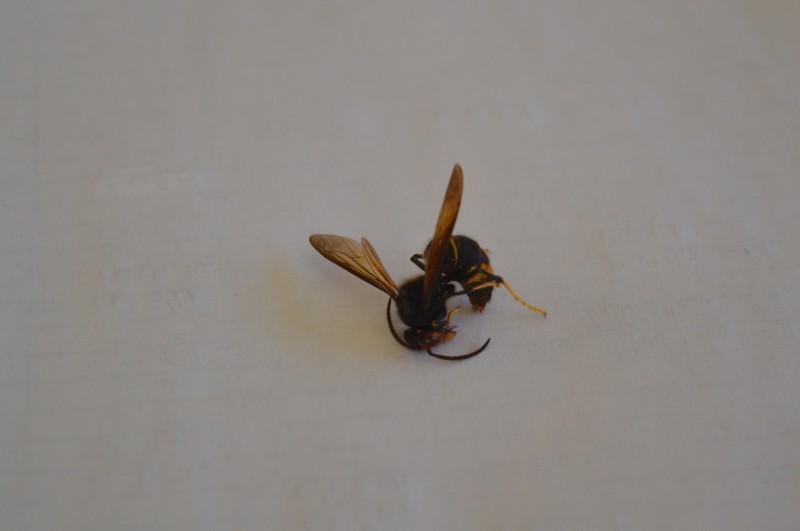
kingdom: Animalia
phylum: Arthropoda
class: Insecta
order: Hymenoptera
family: Vespidae
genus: Vespa
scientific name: Vespa velutina
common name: Asian hornet
